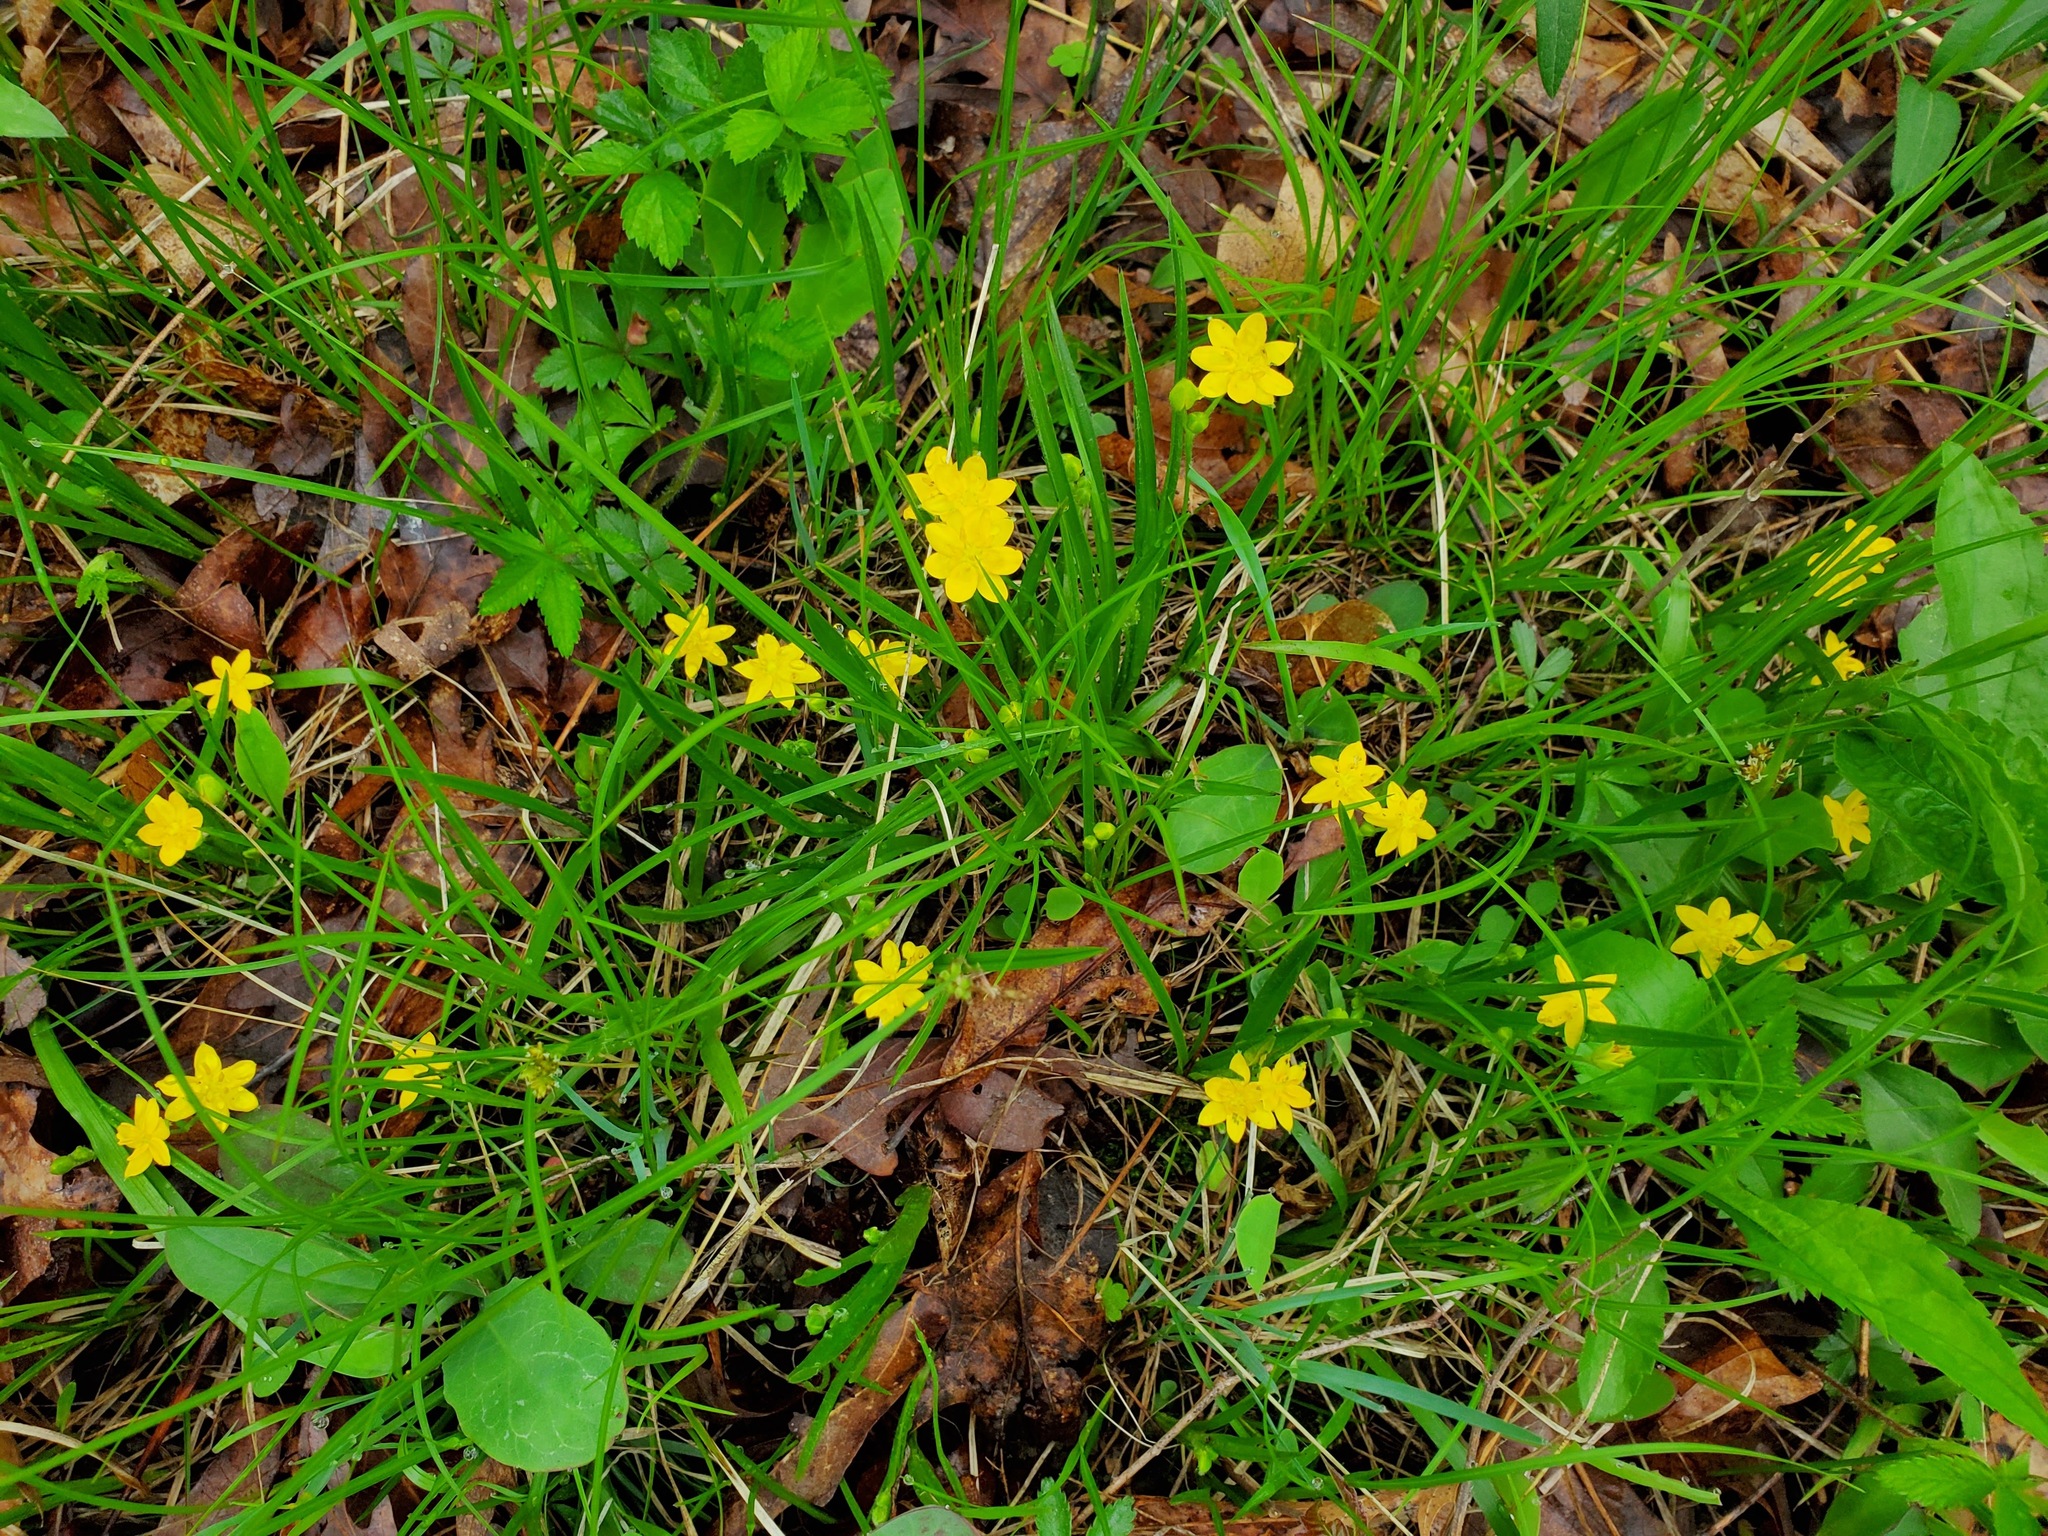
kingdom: Plantae
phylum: Tracheophyta
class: Liliopsida
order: Asparagales
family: Hypoxidaceae
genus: Hypoxis
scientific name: Hypoxis hirsuta
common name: Common goldstar
